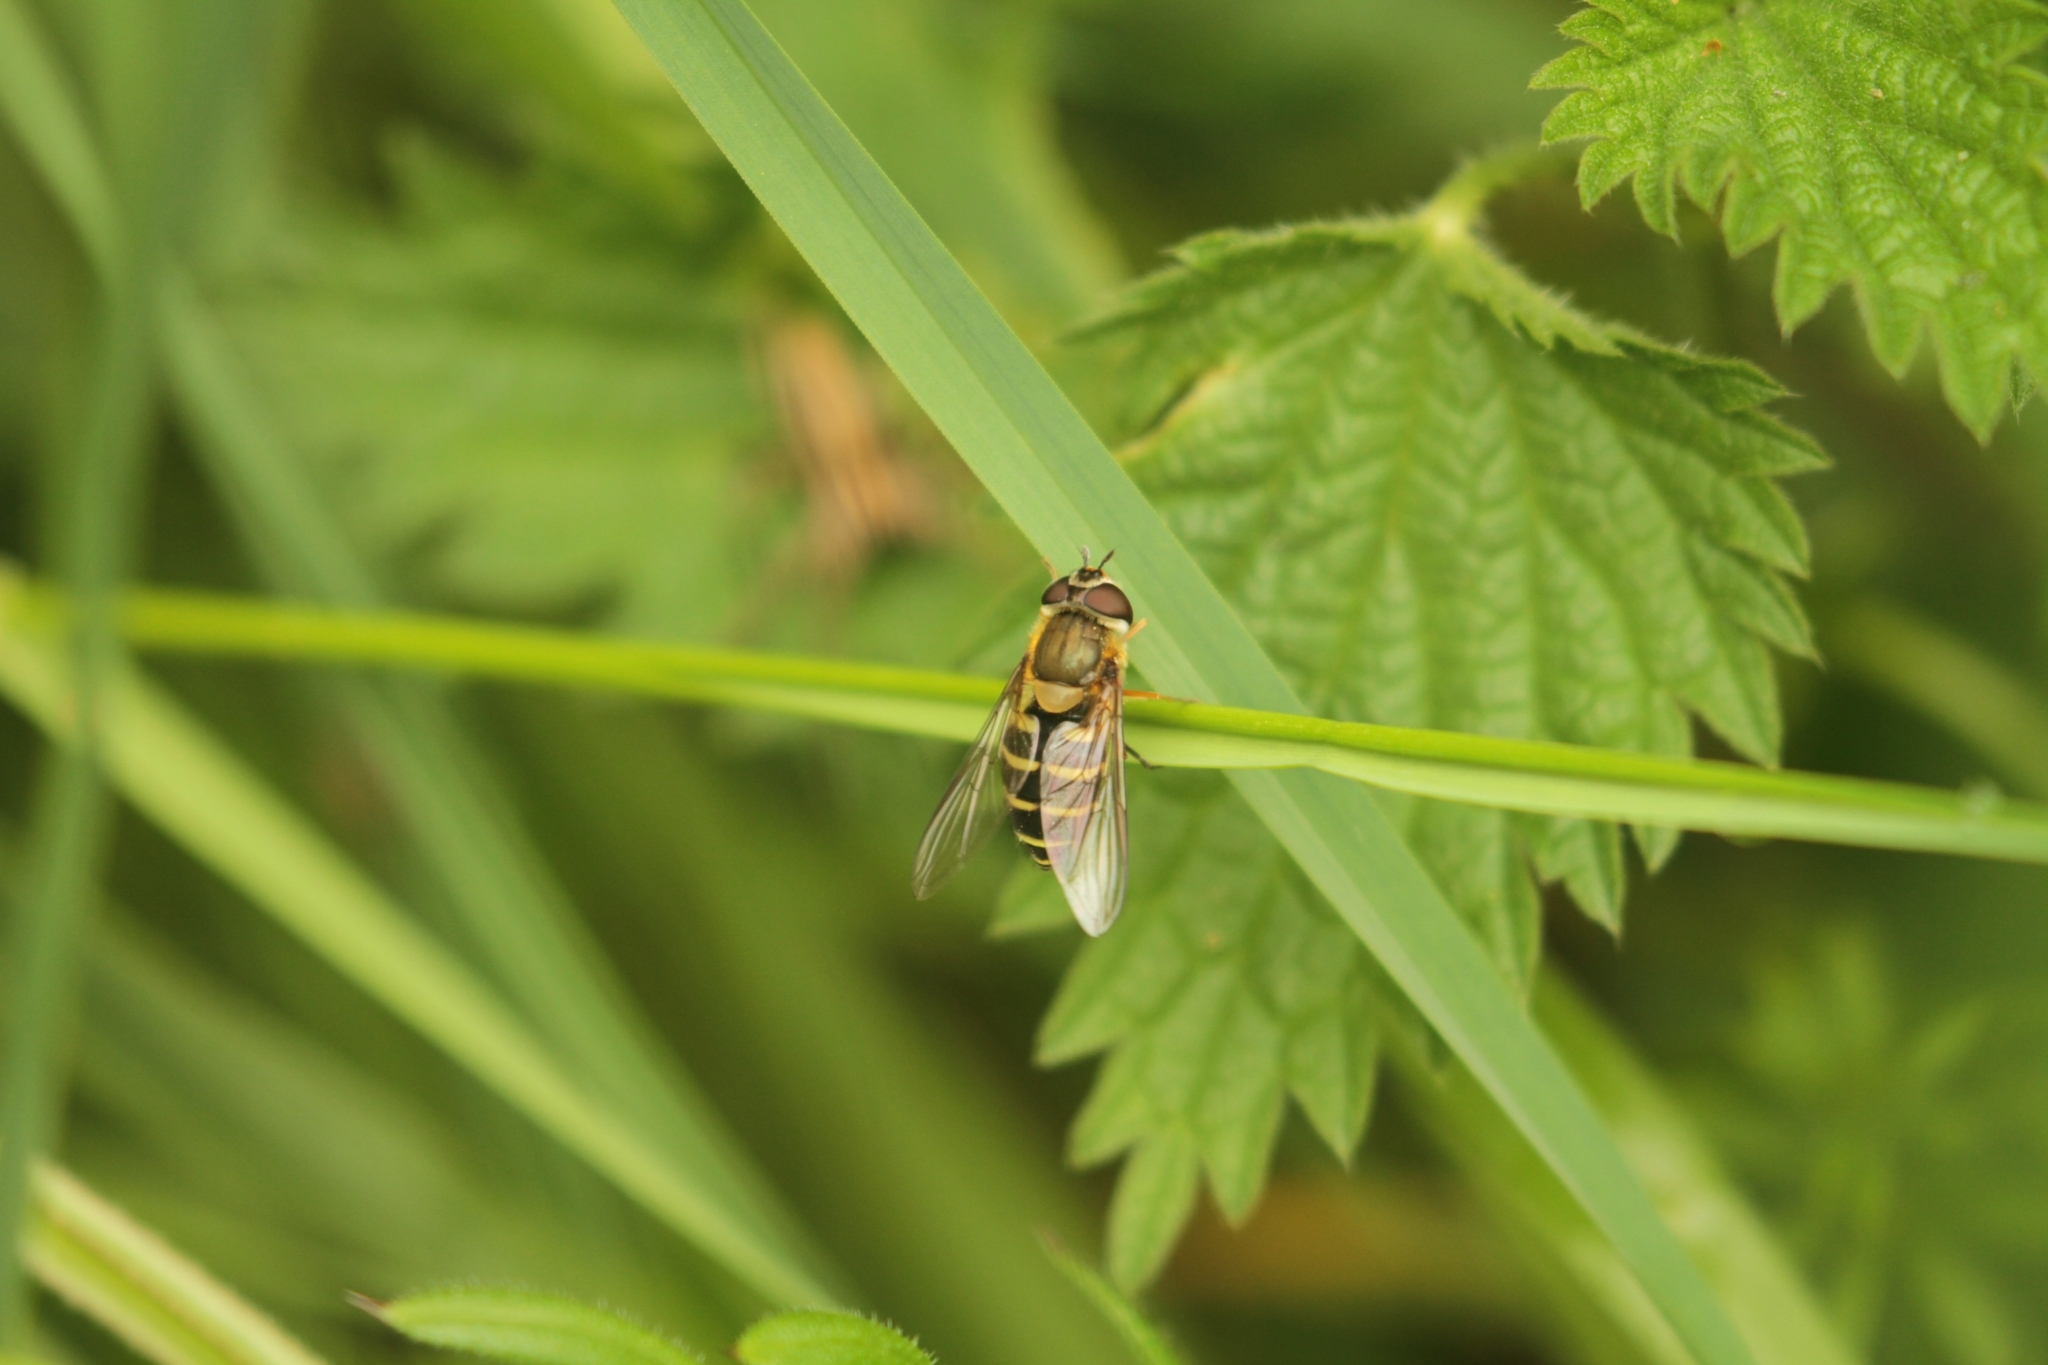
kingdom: Animalia
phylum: Arthropoda
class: Insecta
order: Diptera
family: Syrphidae
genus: Syrphus
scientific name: Syrphus
